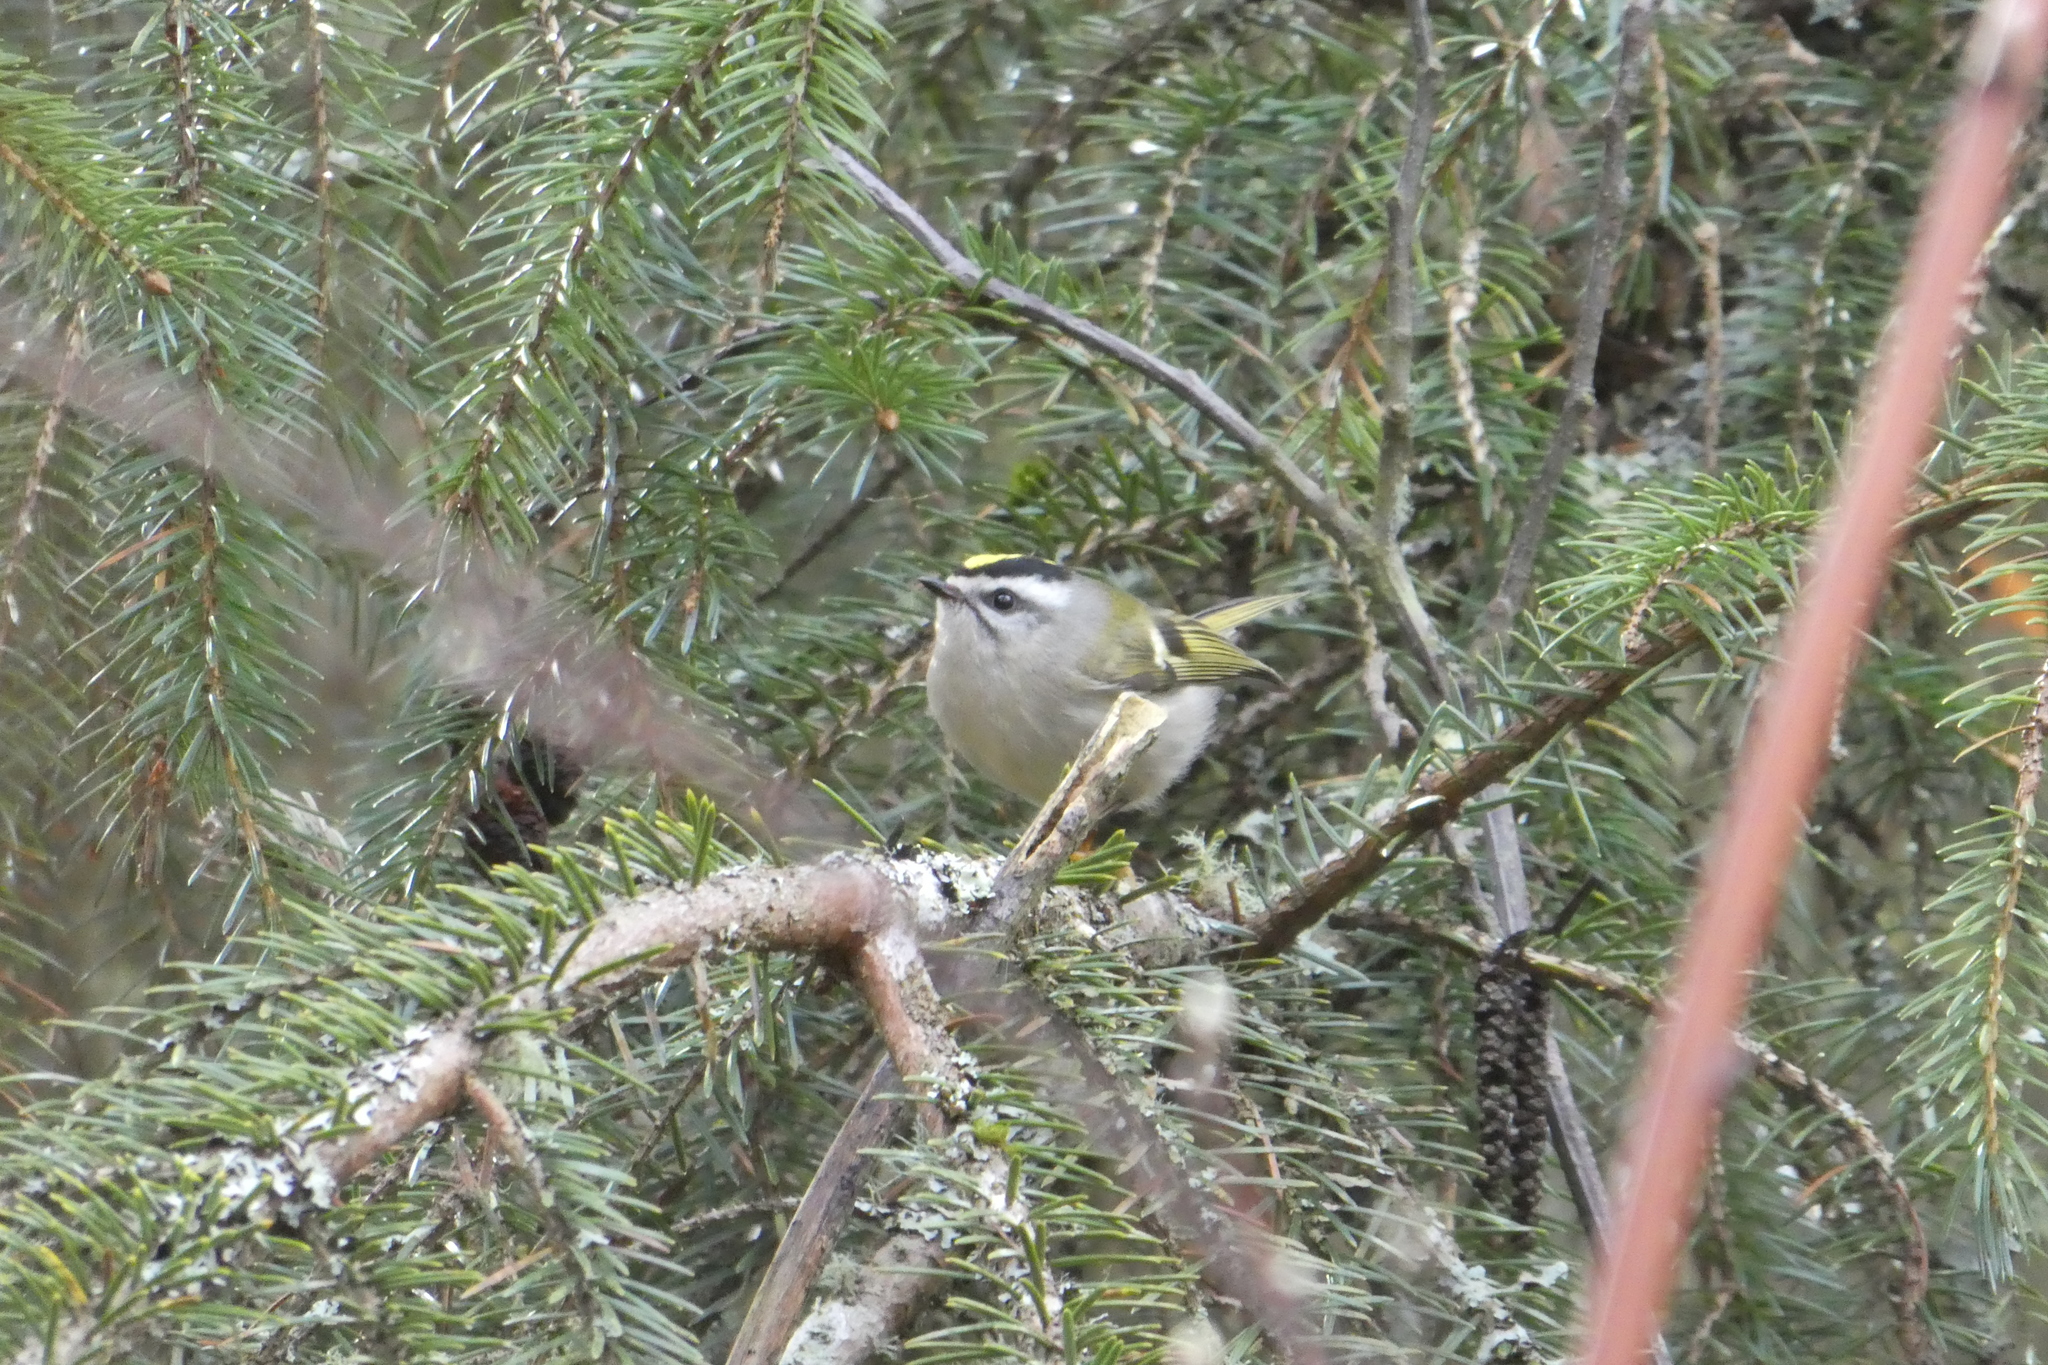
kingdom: Animalia
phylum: Chordata
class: Aves
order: Passeriformes
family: Regulidae
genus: Regulus
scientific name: Regulus satrapa
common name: Golden-crowned kinglet
